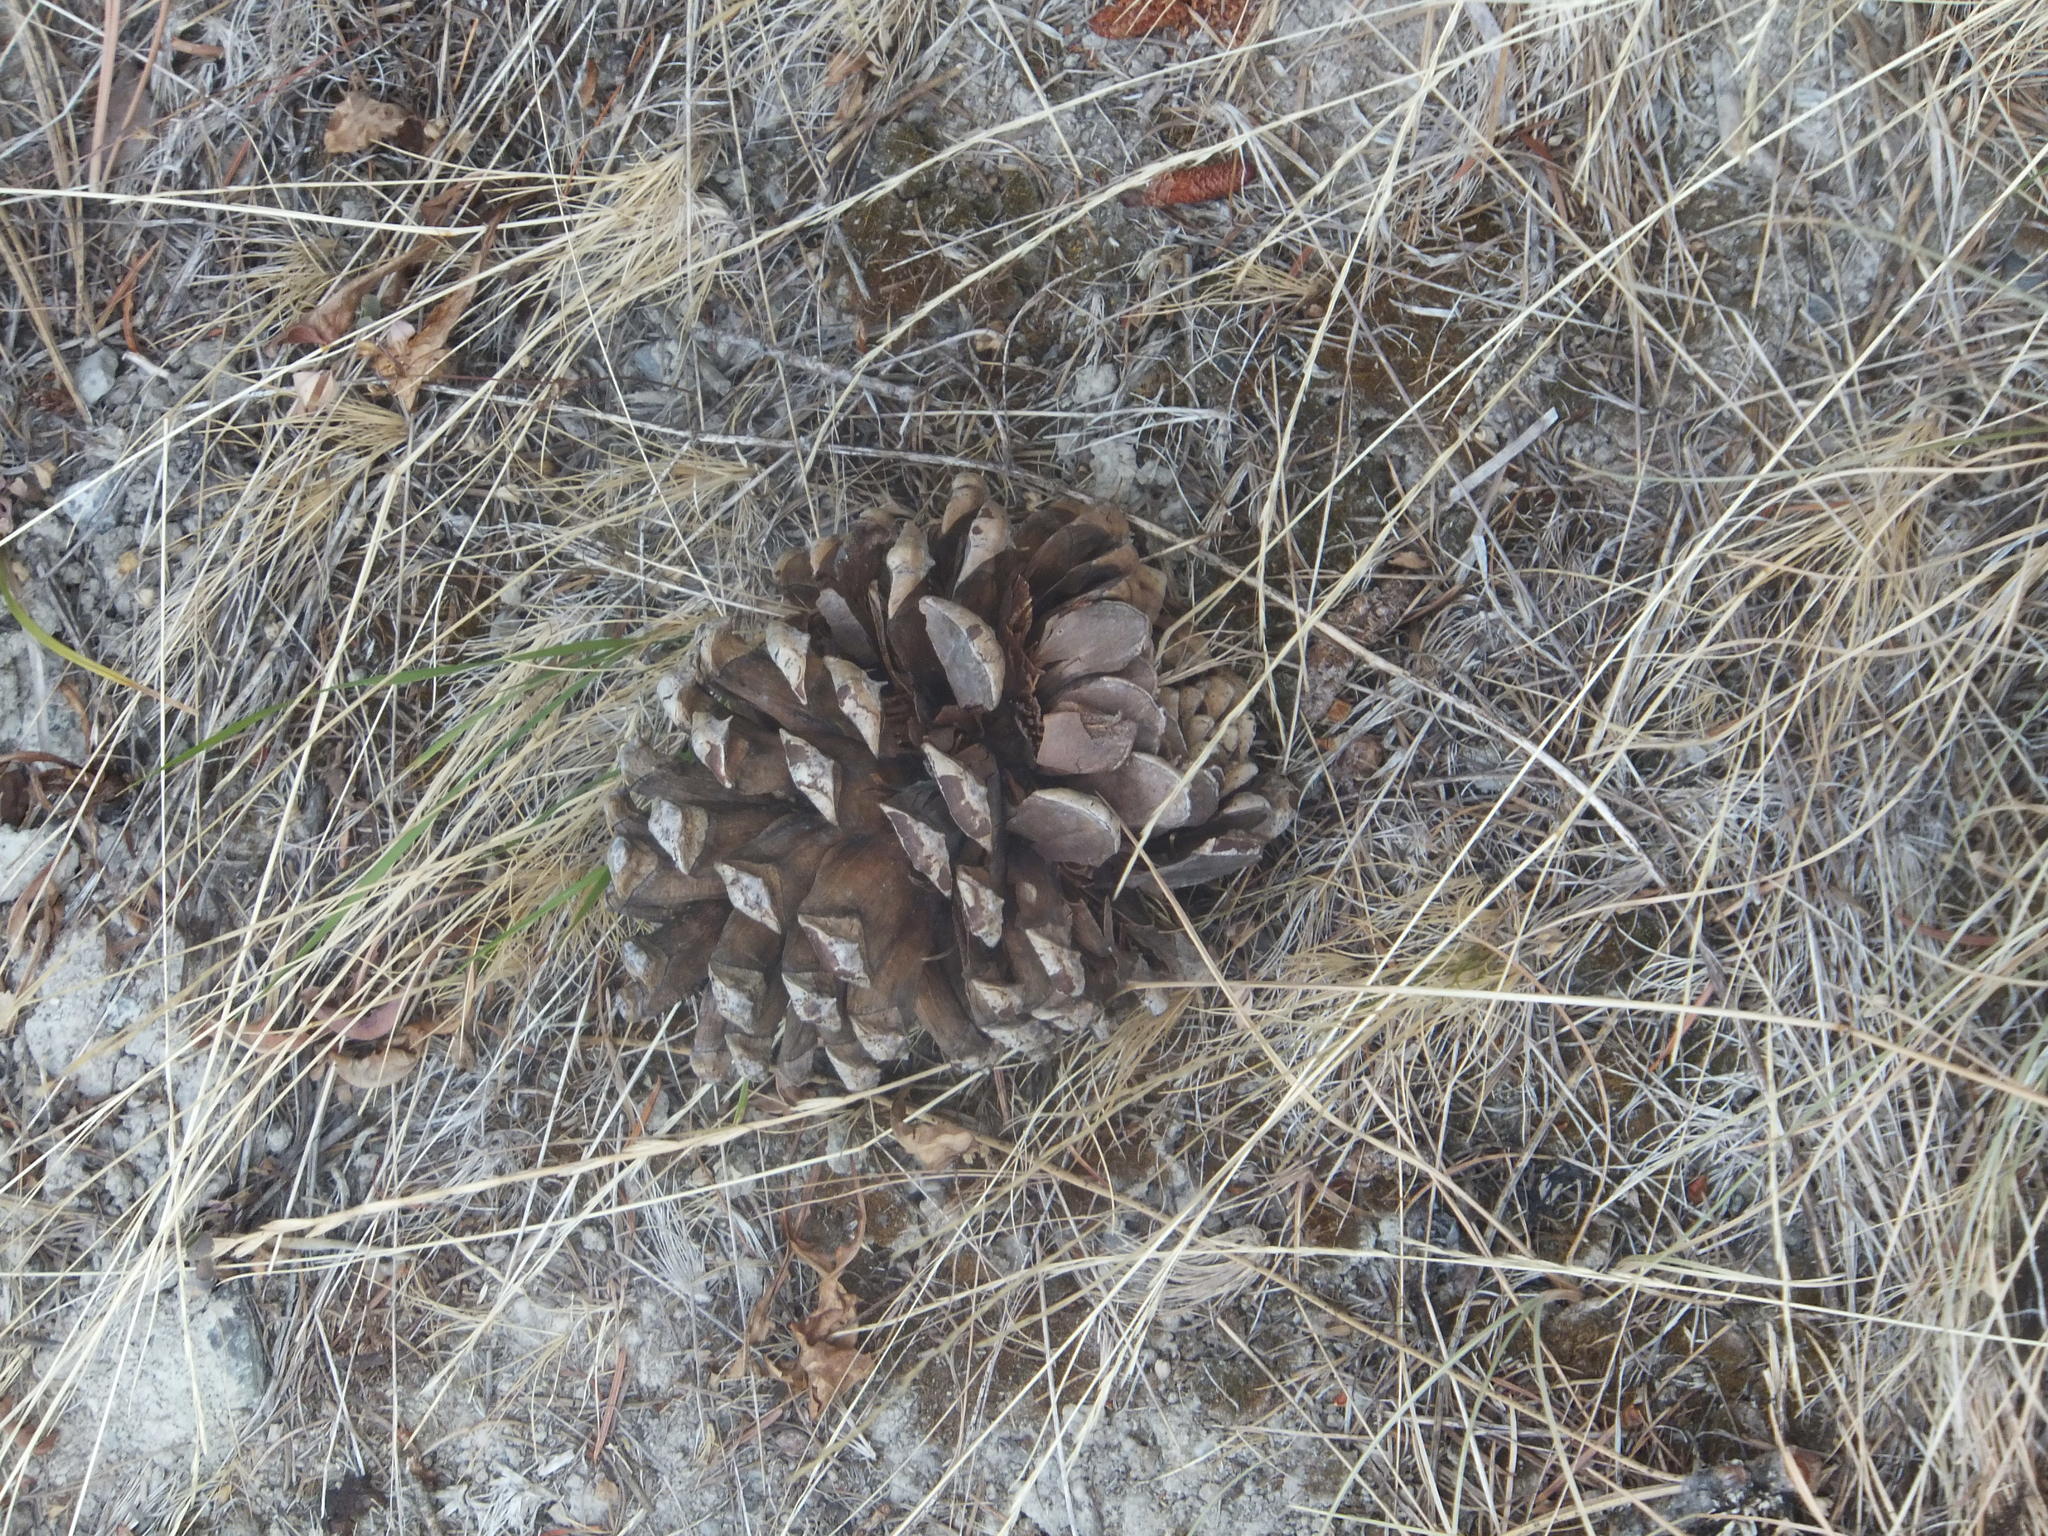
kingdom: Plantae
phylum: Tracheophyta
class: Pinopsida
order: Pinales
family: Pinaceae
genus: Pinus
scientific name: Pinus ponderosa
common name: Western yellow-pine
